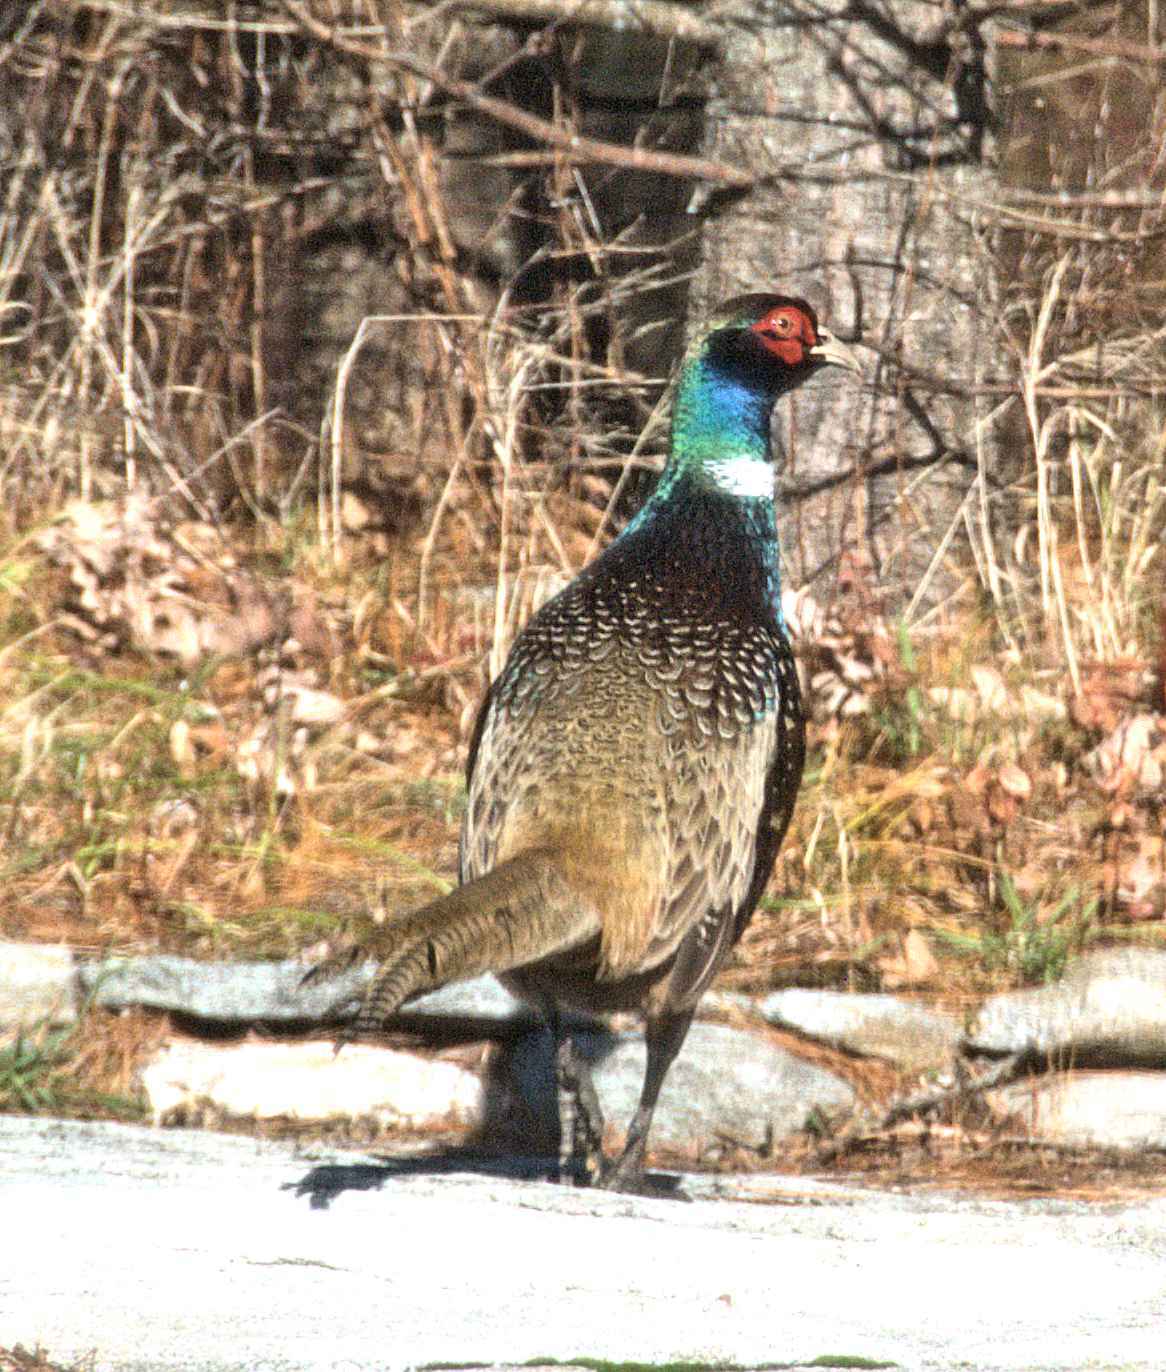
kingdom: Animalia
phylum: Chordata
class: Aves
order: Galliformes
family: Phasianidae
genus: Phasianus
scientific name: Phasianus colchicus
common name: Common pheasant
